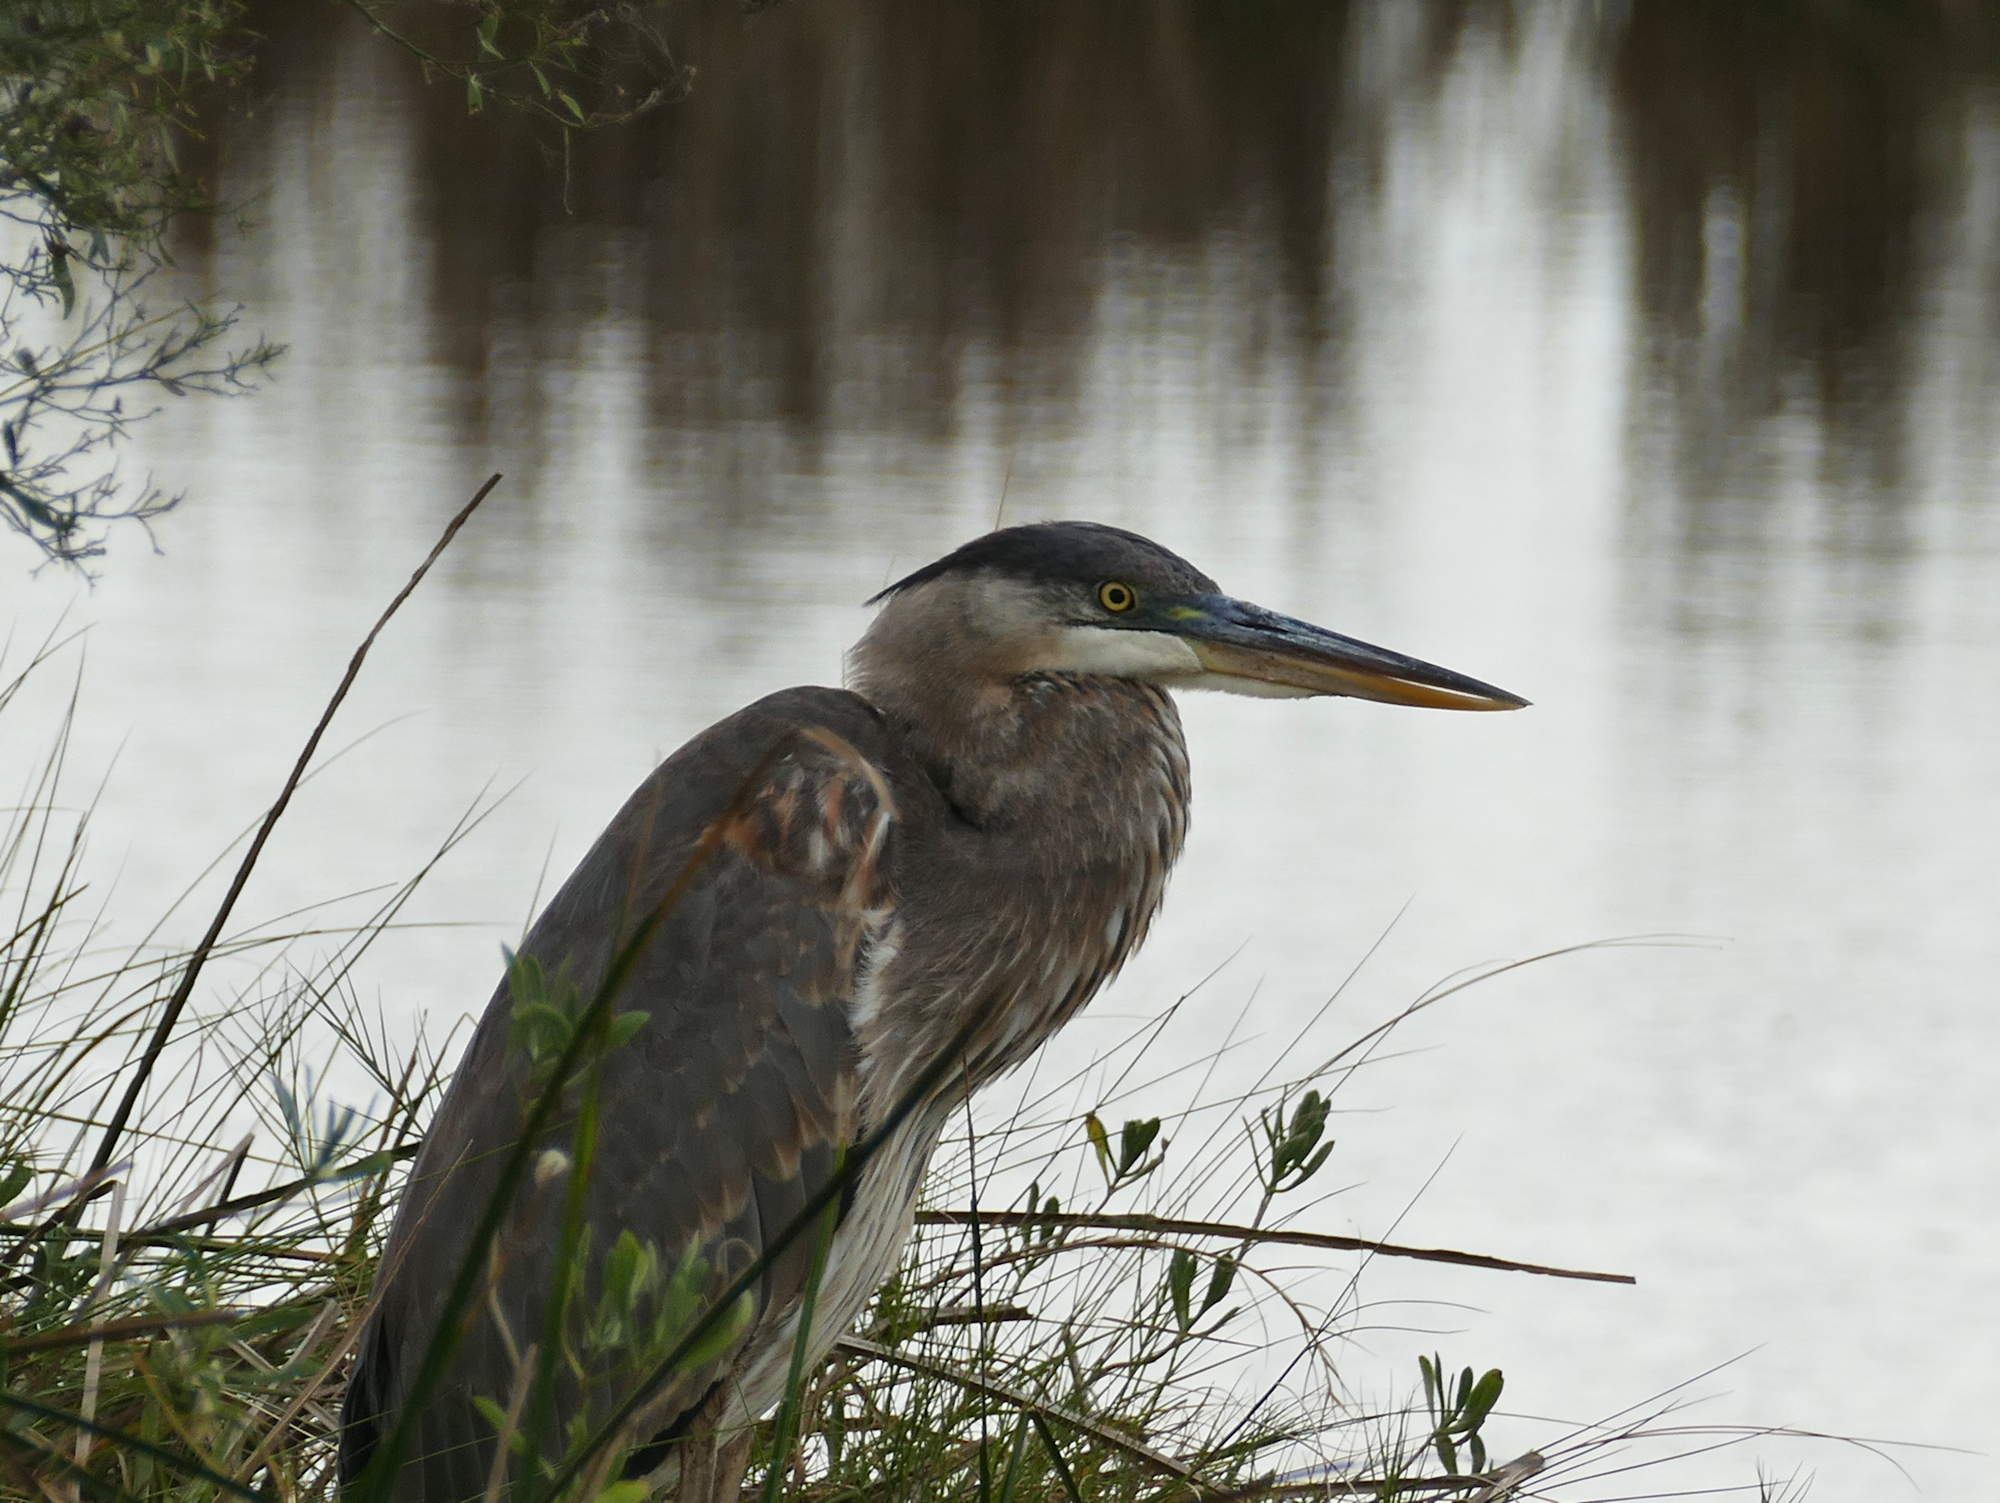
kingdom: Animalia
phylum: Chordata
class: Aves
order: Pelecaniformes
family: Ardeidae
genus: Ardea
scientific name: Ardea herodias
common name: Great blue heron
